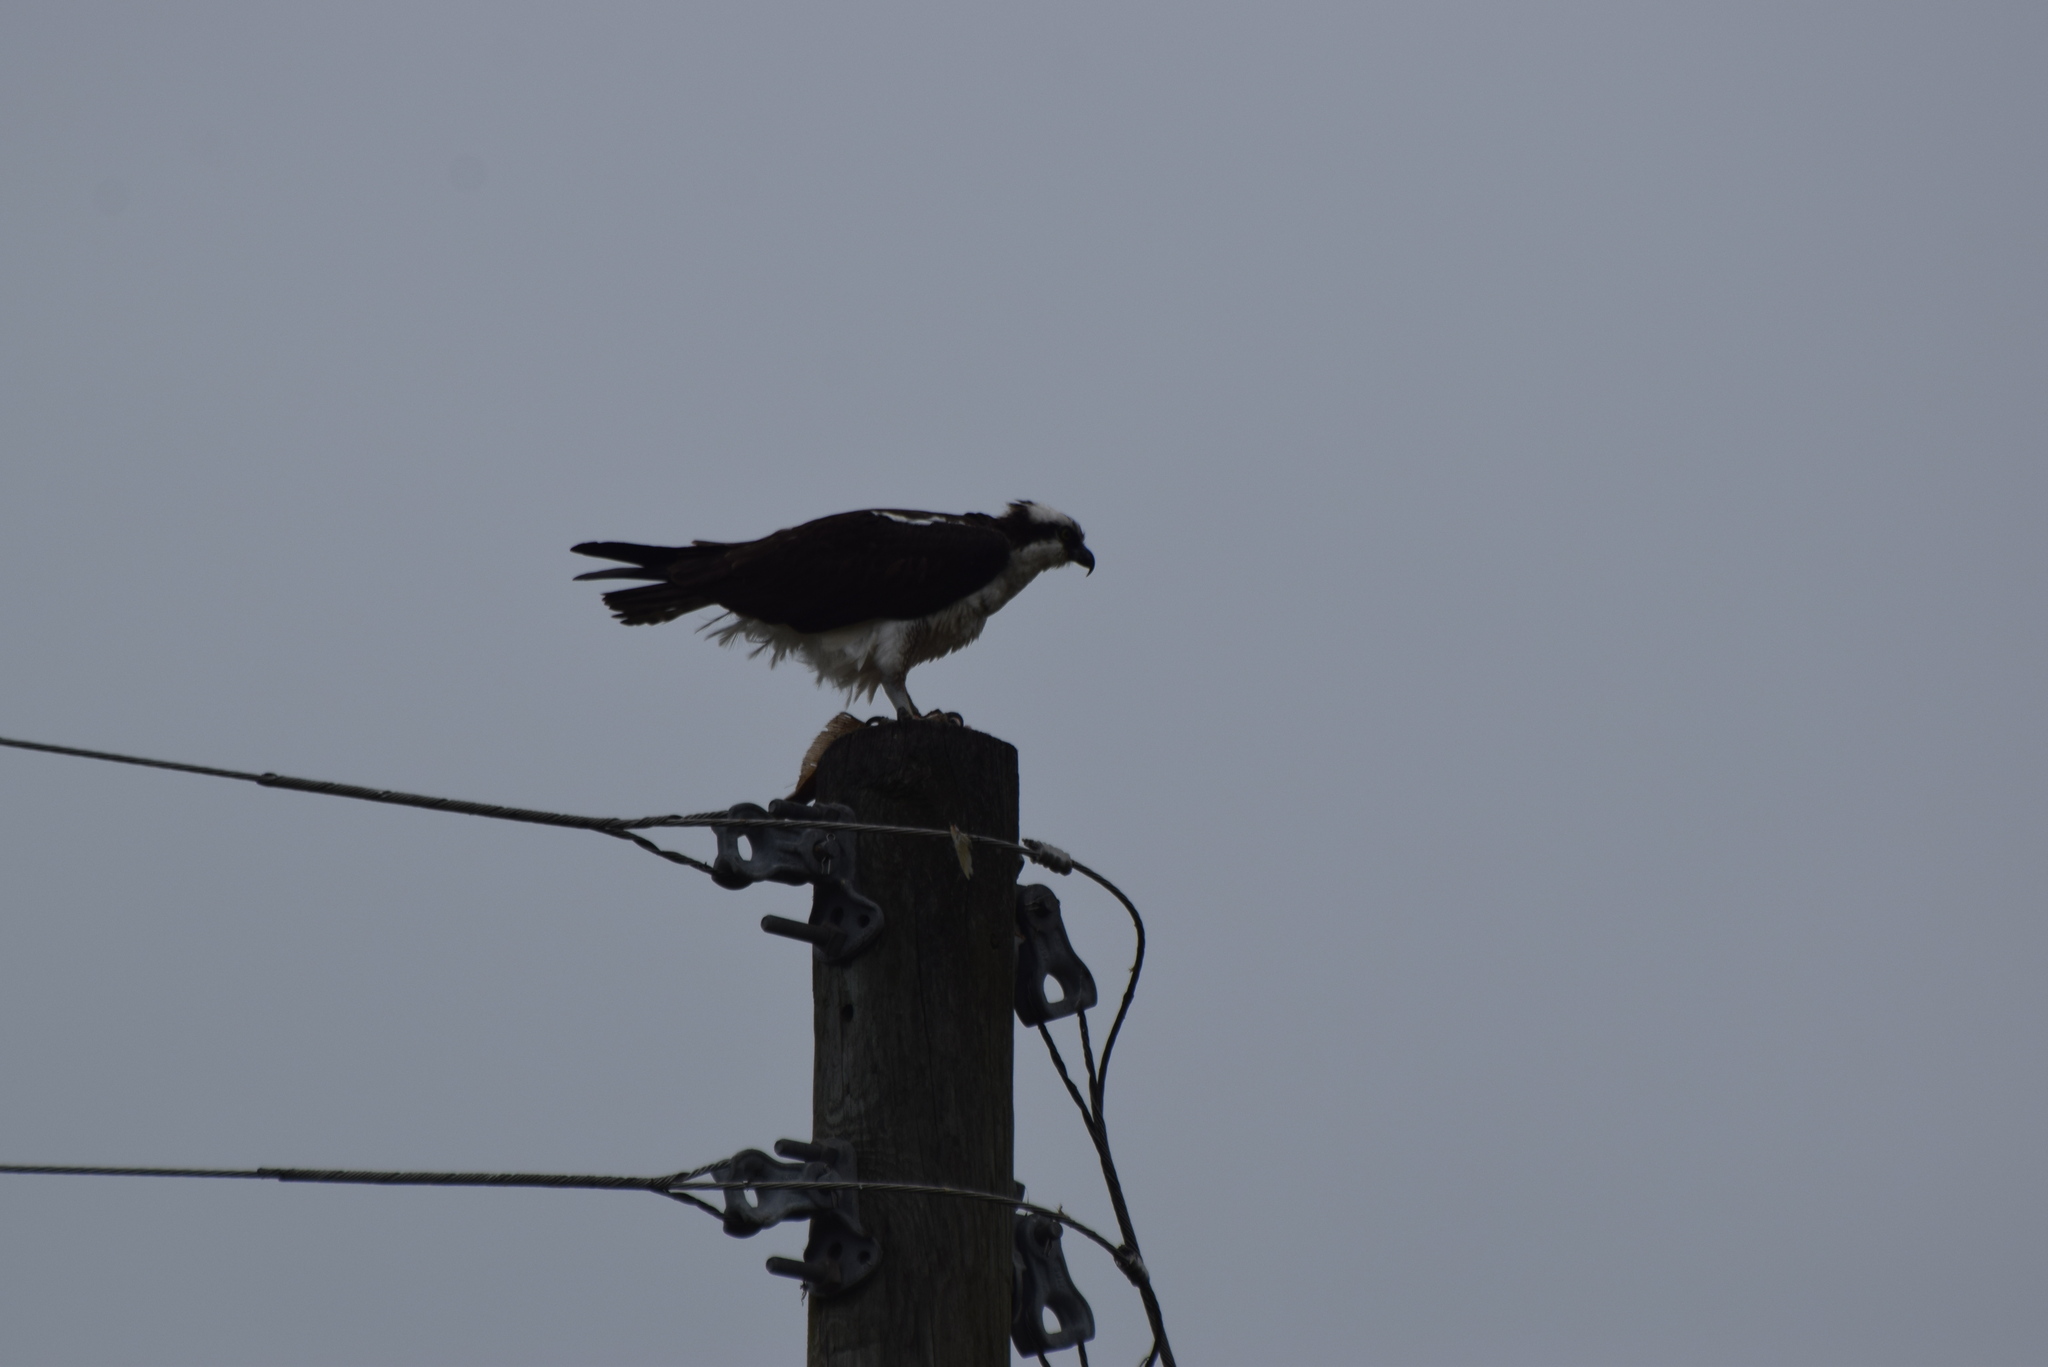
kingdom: Animalia
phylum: Chordata
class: Aves
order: Accipitriformes
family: Pandionidae
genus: Pandion
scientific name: Pandion haliaetus
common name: Osprey
